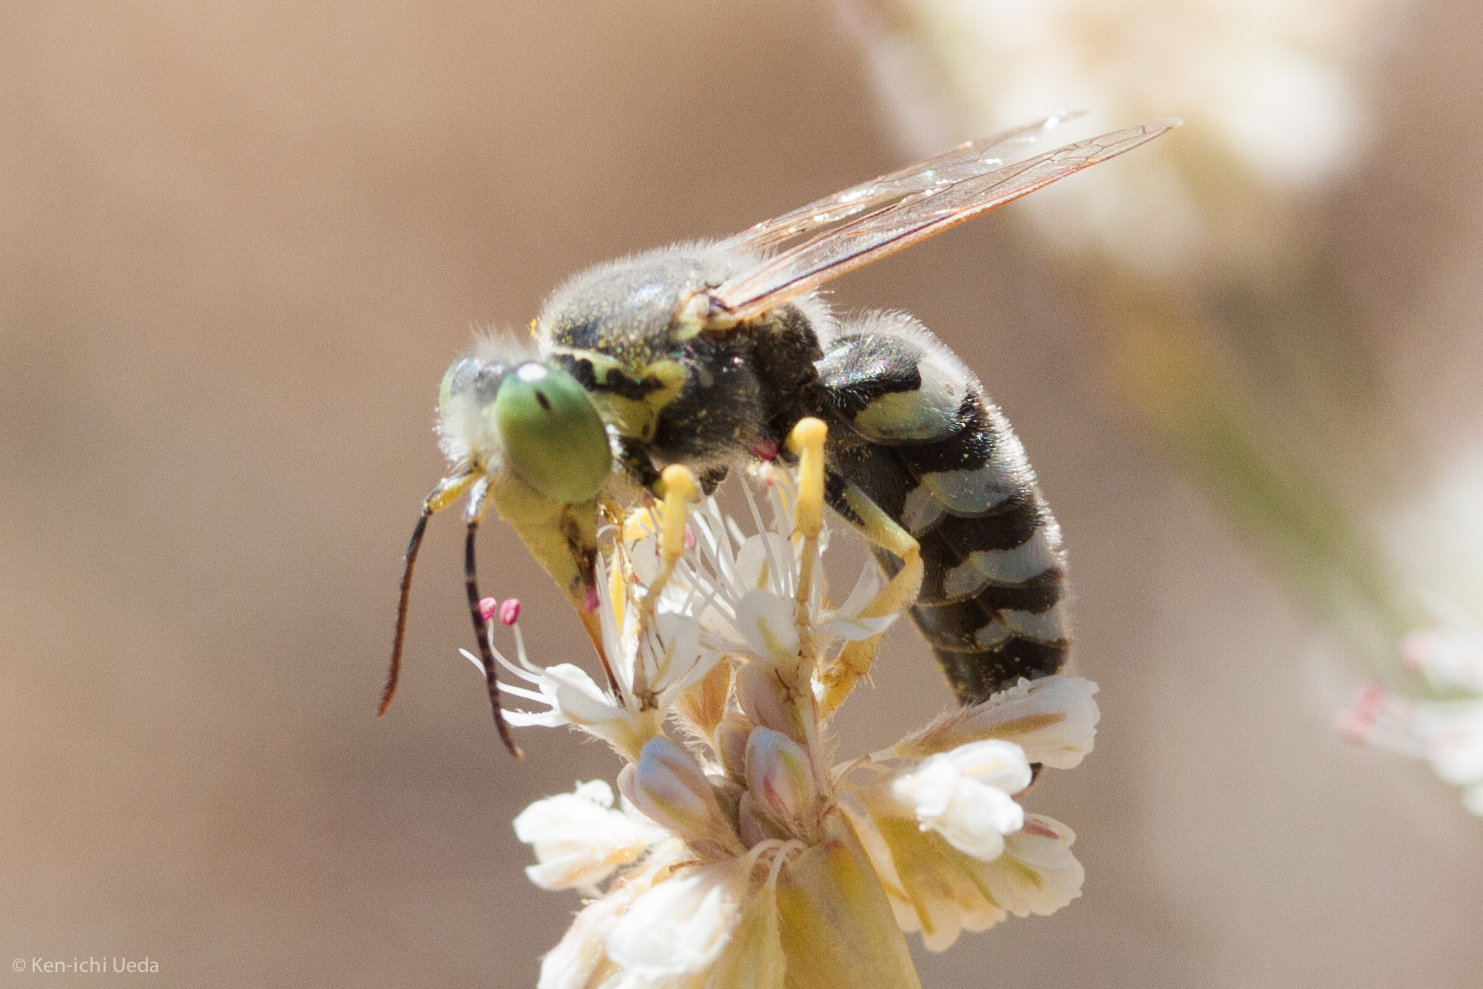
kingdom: Animalia
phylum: Arthropoda
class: Insecta
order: Hymenoptera
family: Crabronidae
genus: Bembix
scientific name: Bembix americana
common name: American sand wasp
